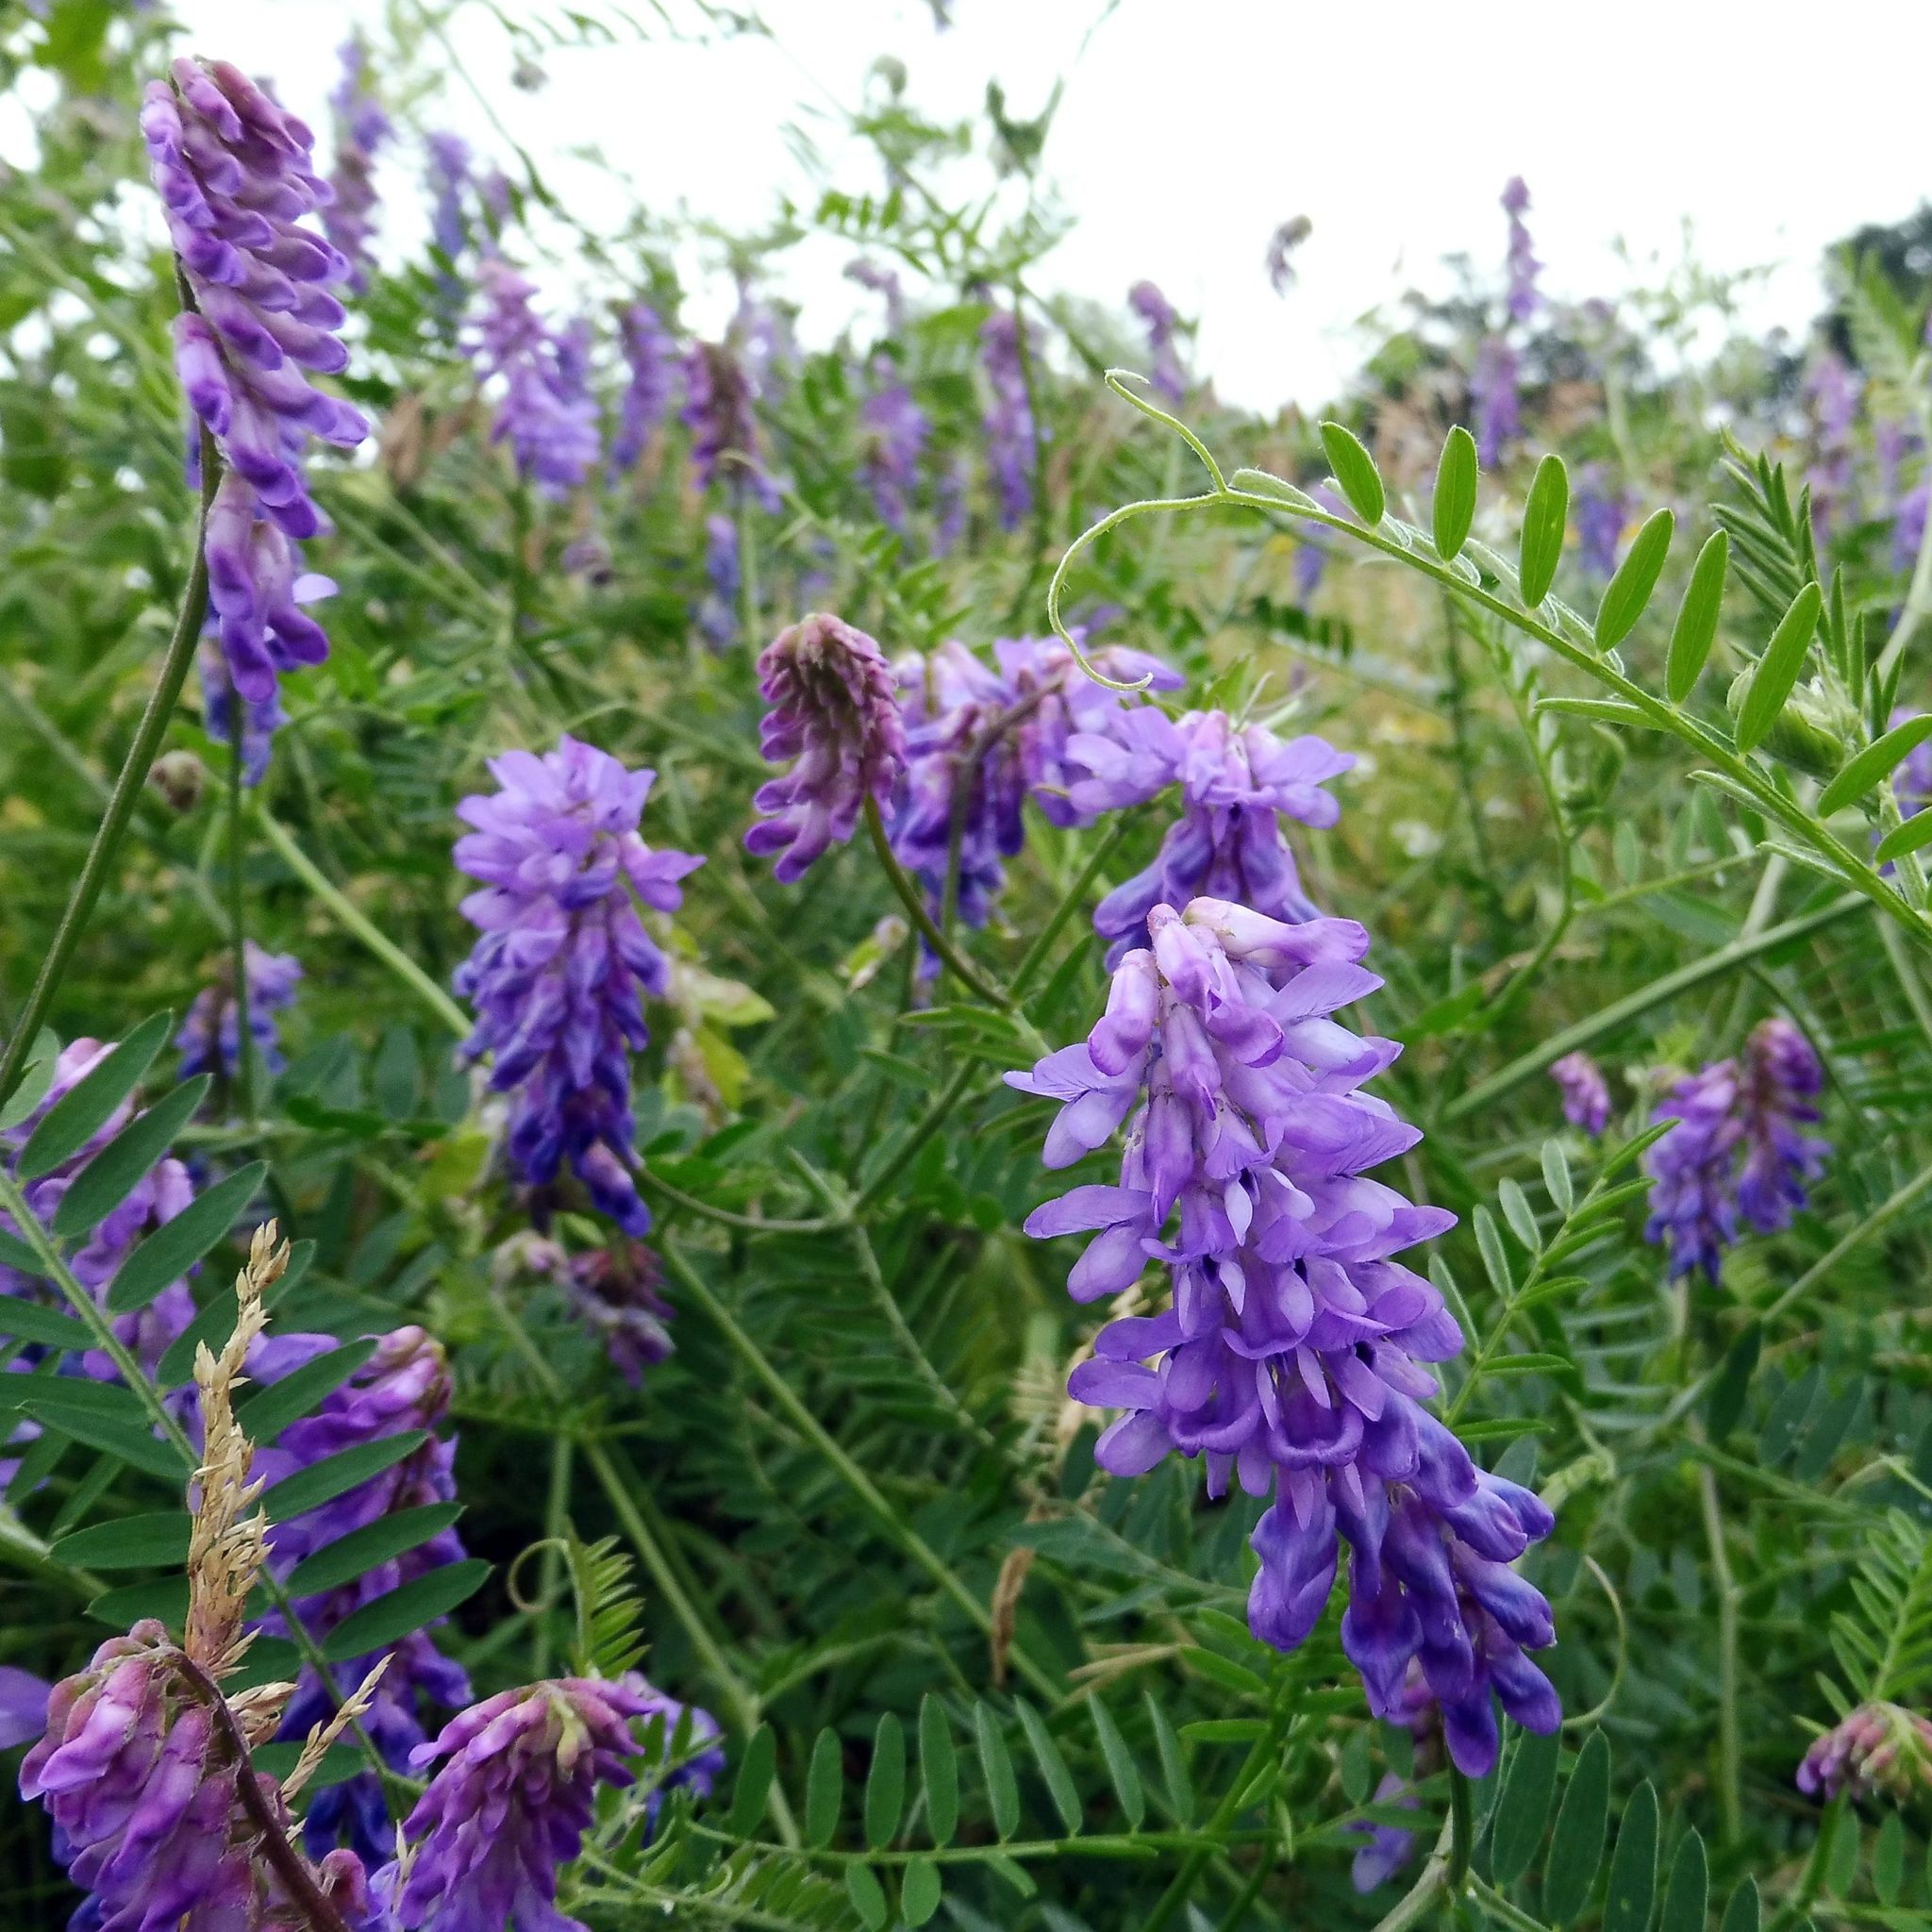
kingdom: Plantae
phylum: Tracheophyta
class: Magnoliopsida
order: Fabales
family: Fabaceae
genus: Vicia
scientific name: Vicia cracca
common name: Bird vetch
